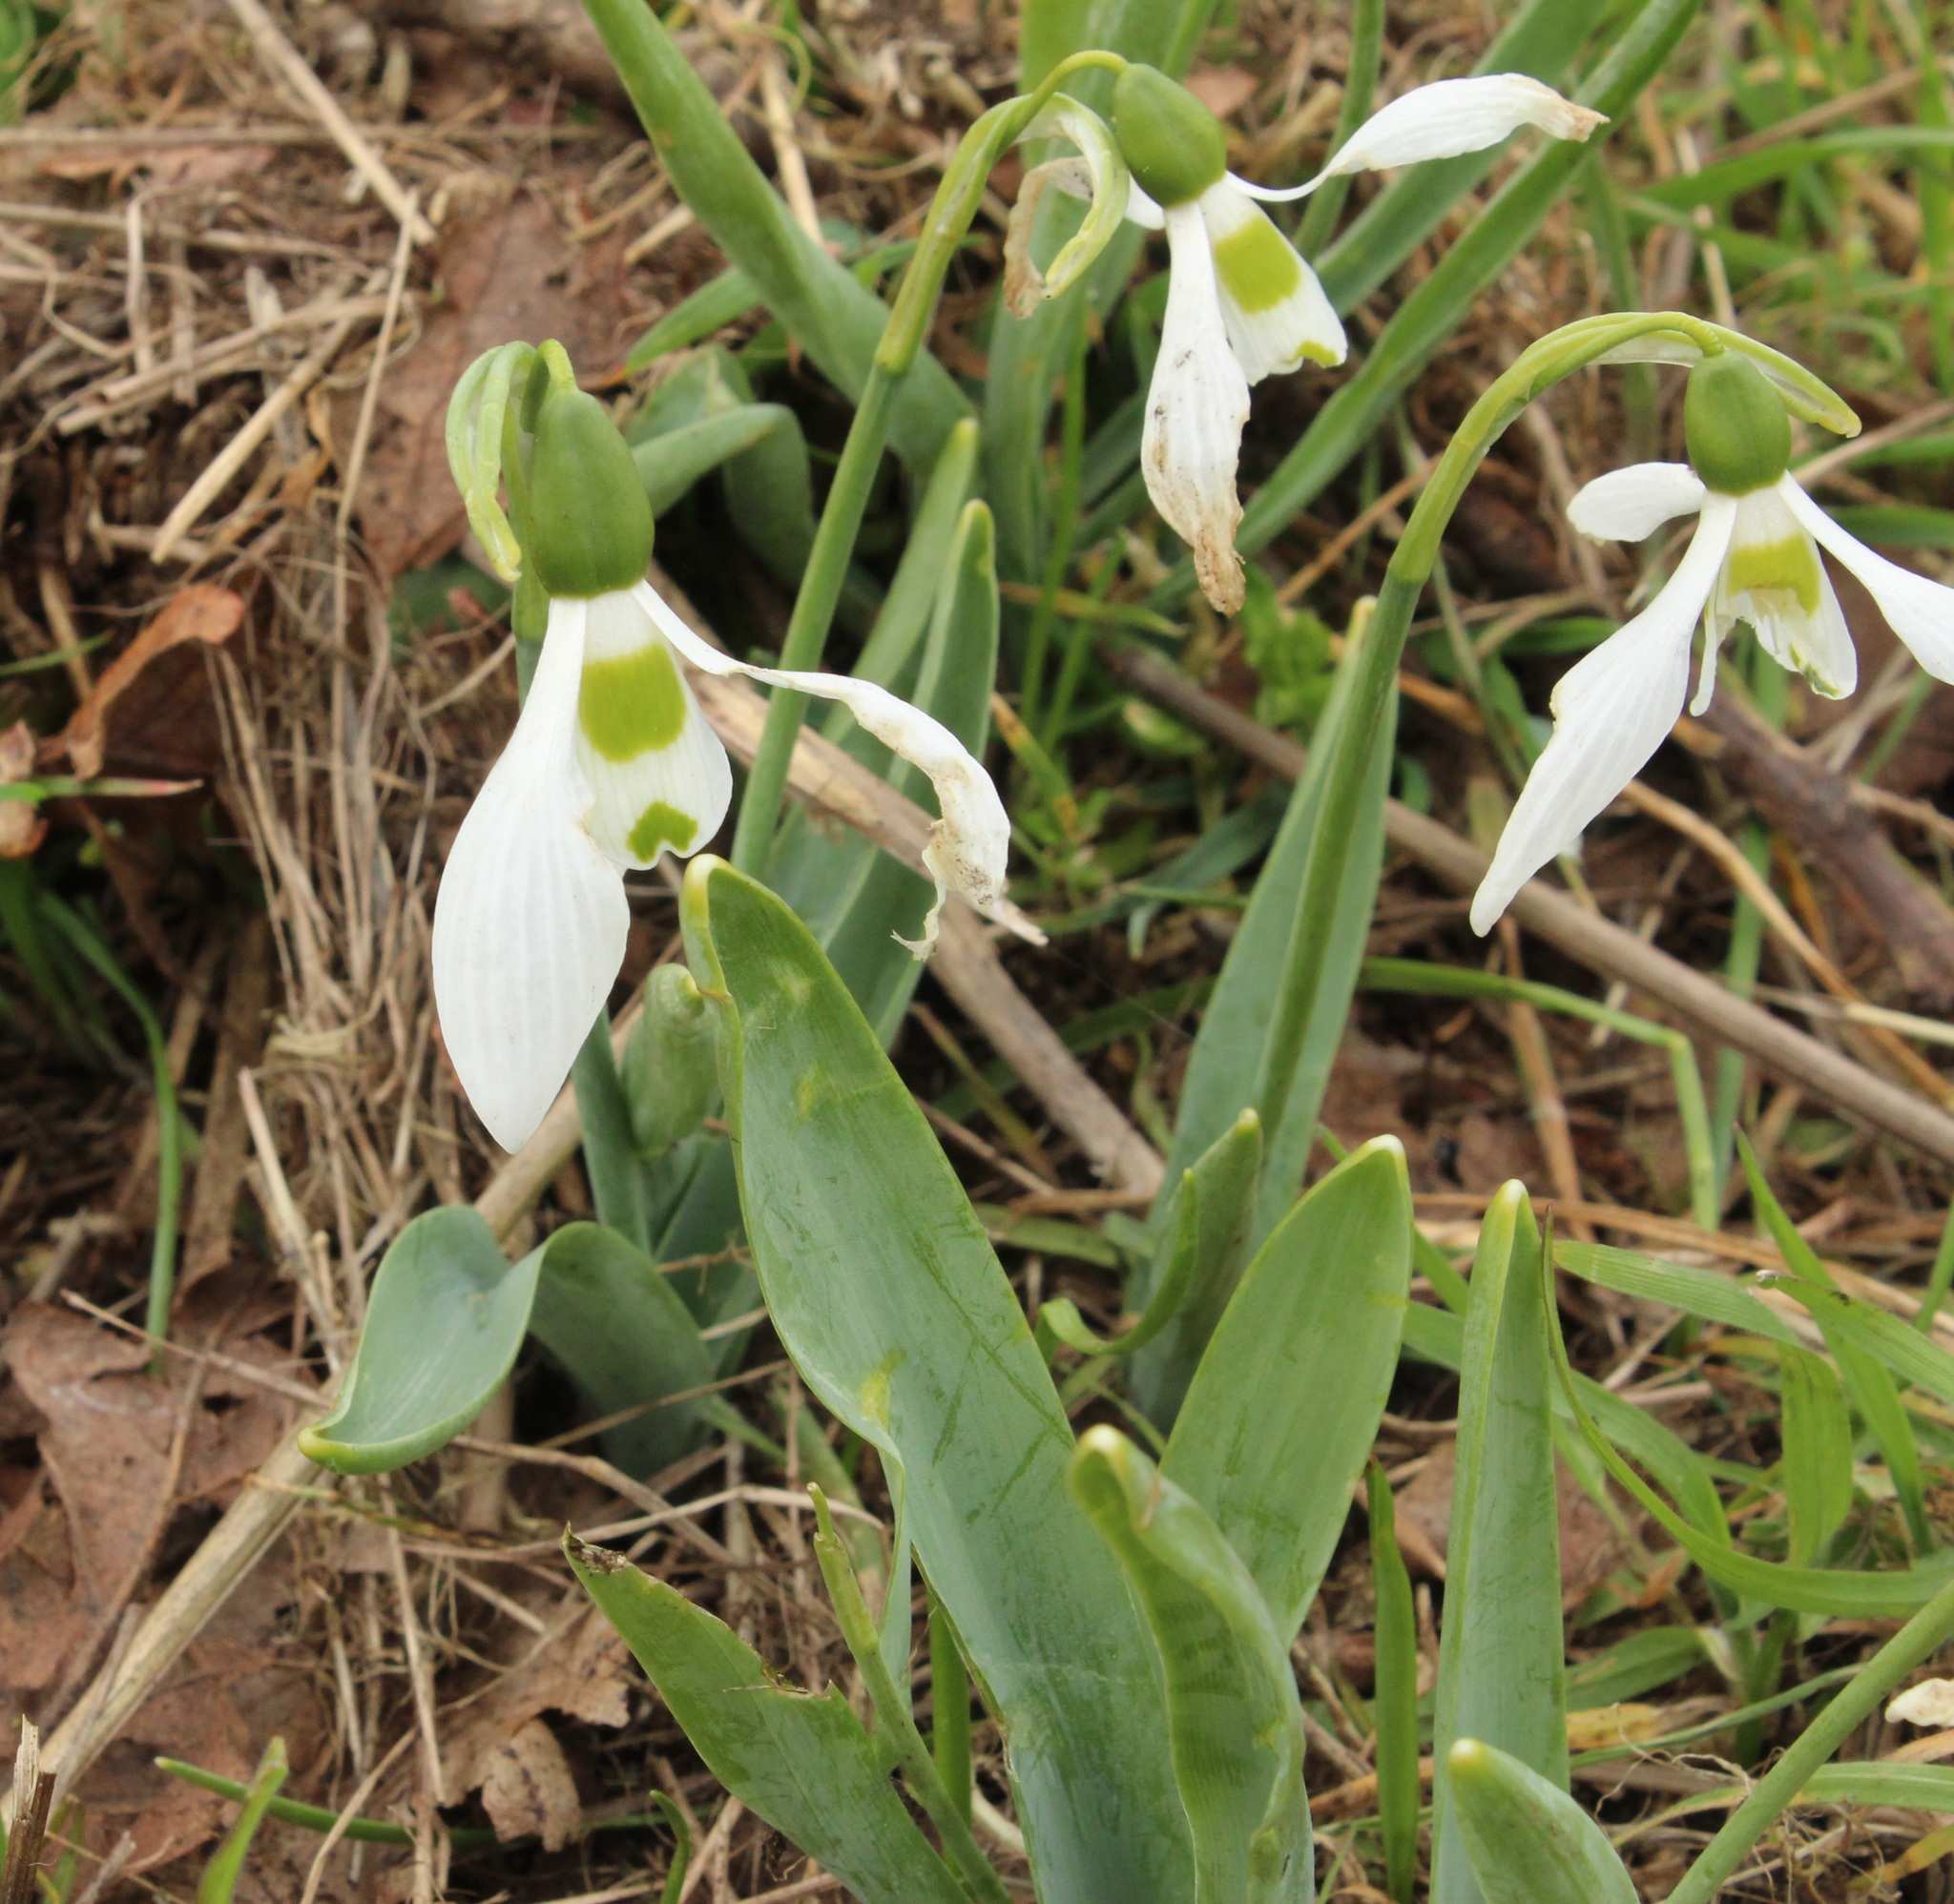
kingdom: Plantae
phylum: Tracheophyta
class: Liliopsida
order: Asparagales
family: Amaryllidaceae
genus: Galanthus
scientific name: Galanthus elwesii
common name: Greater snowdrop
